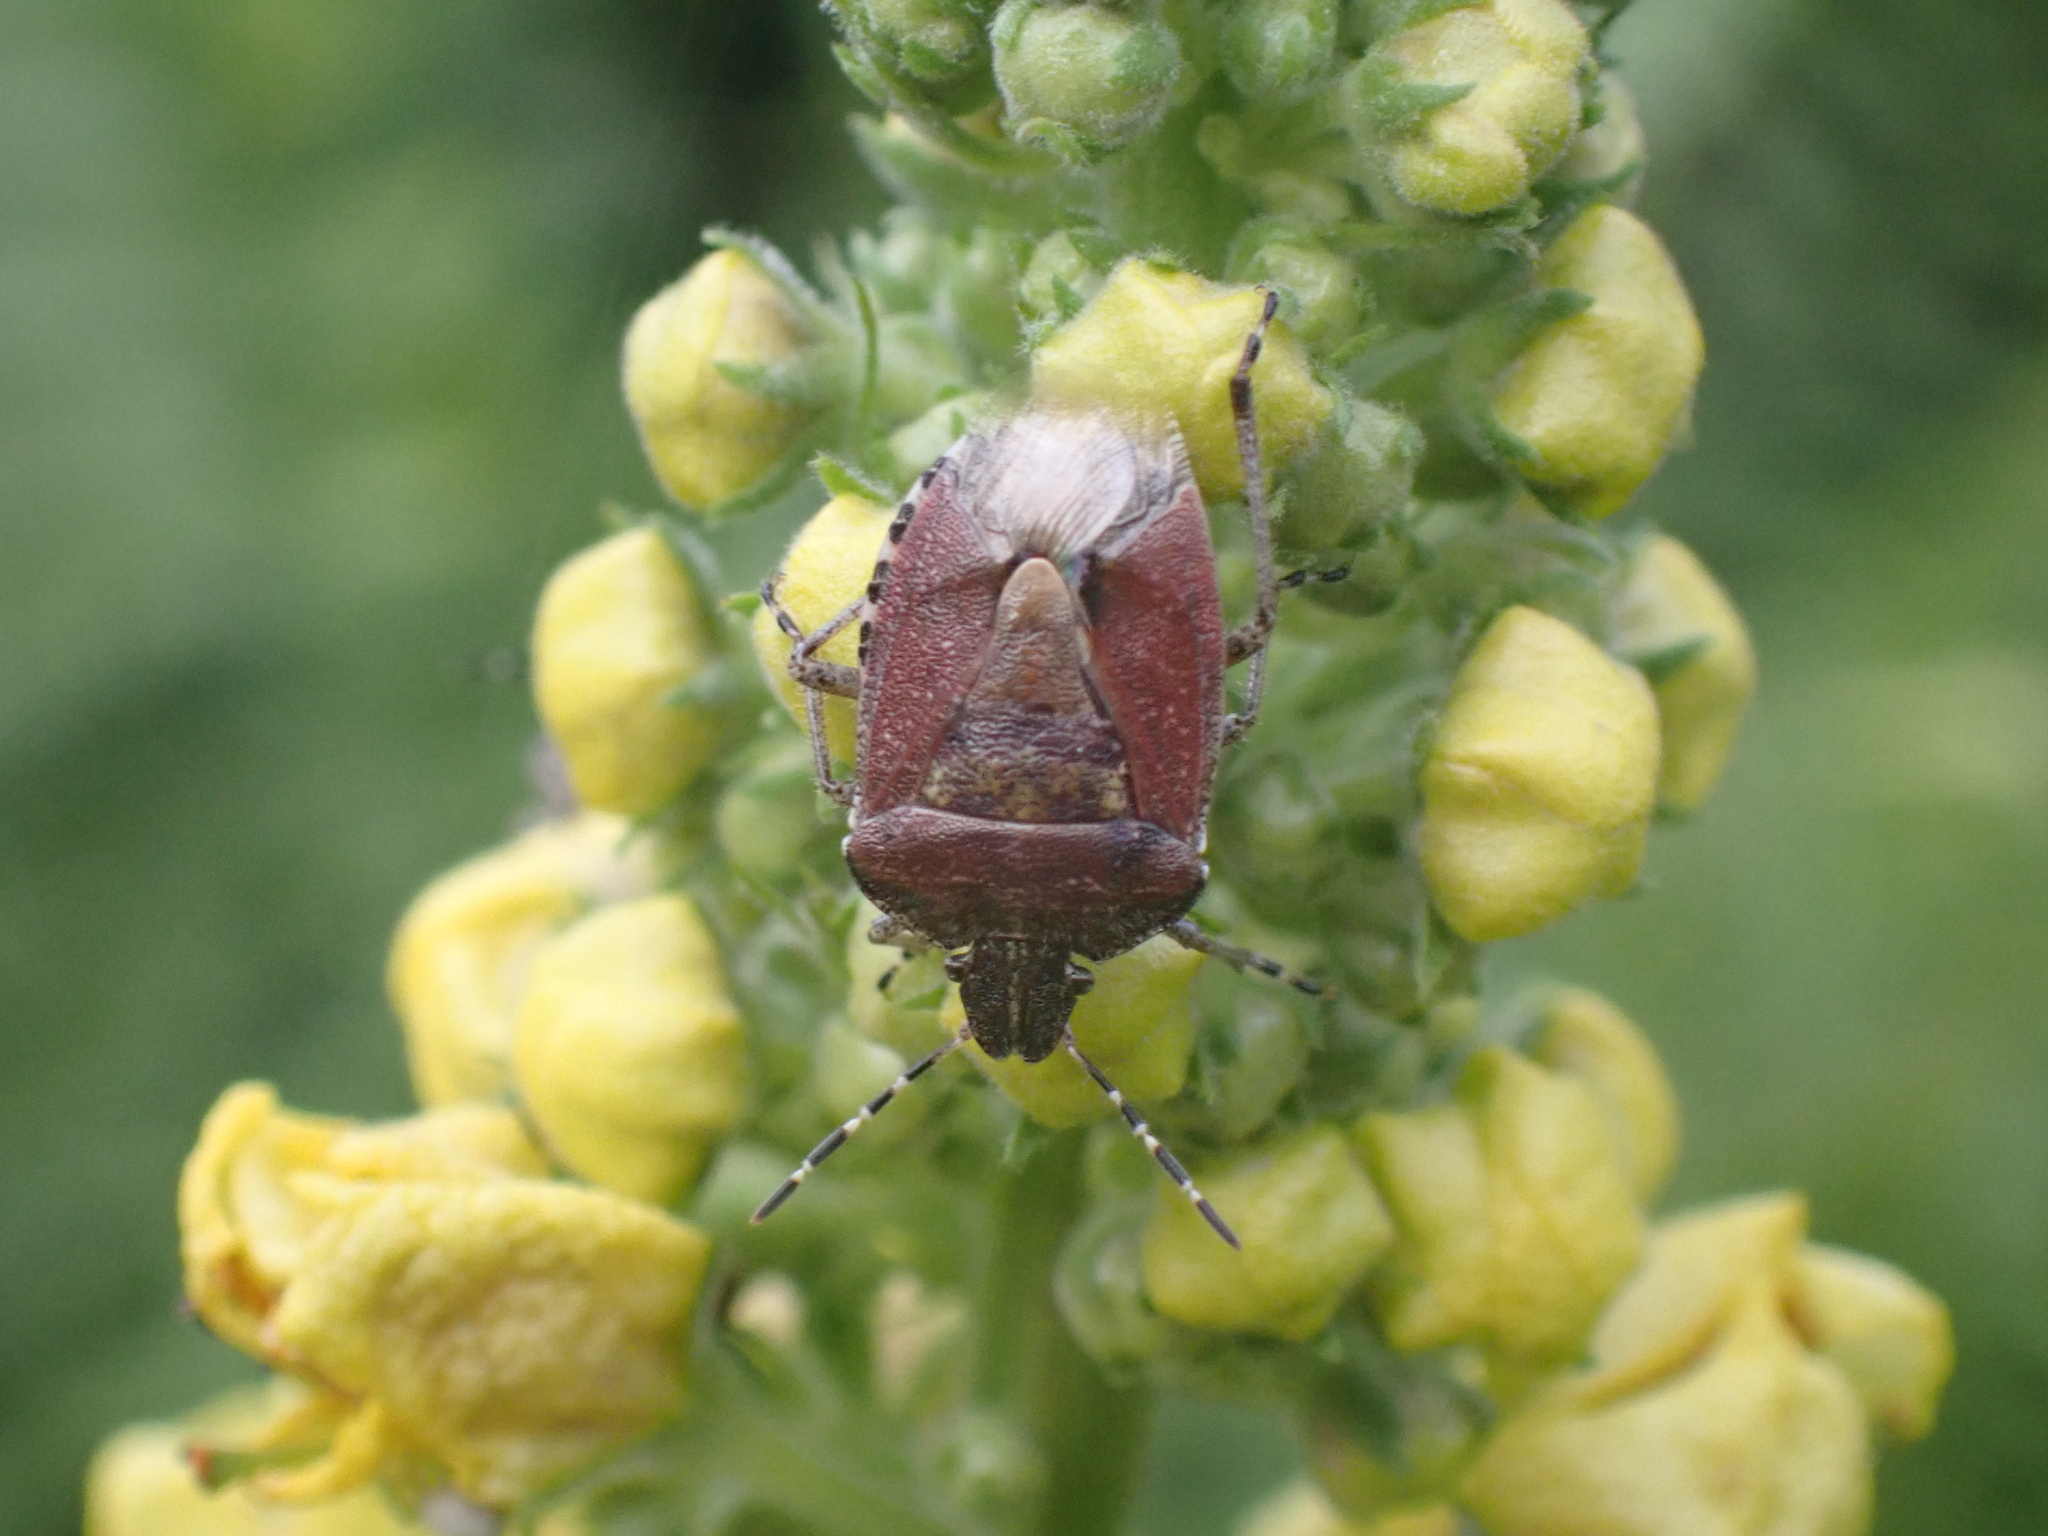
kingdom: Animalia
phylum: Arthropoda
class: Insecta
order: Hemiptera
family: Pentatomidae
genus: Dolycoris
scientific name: Dolycoris baccarum
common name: Sloe bug
